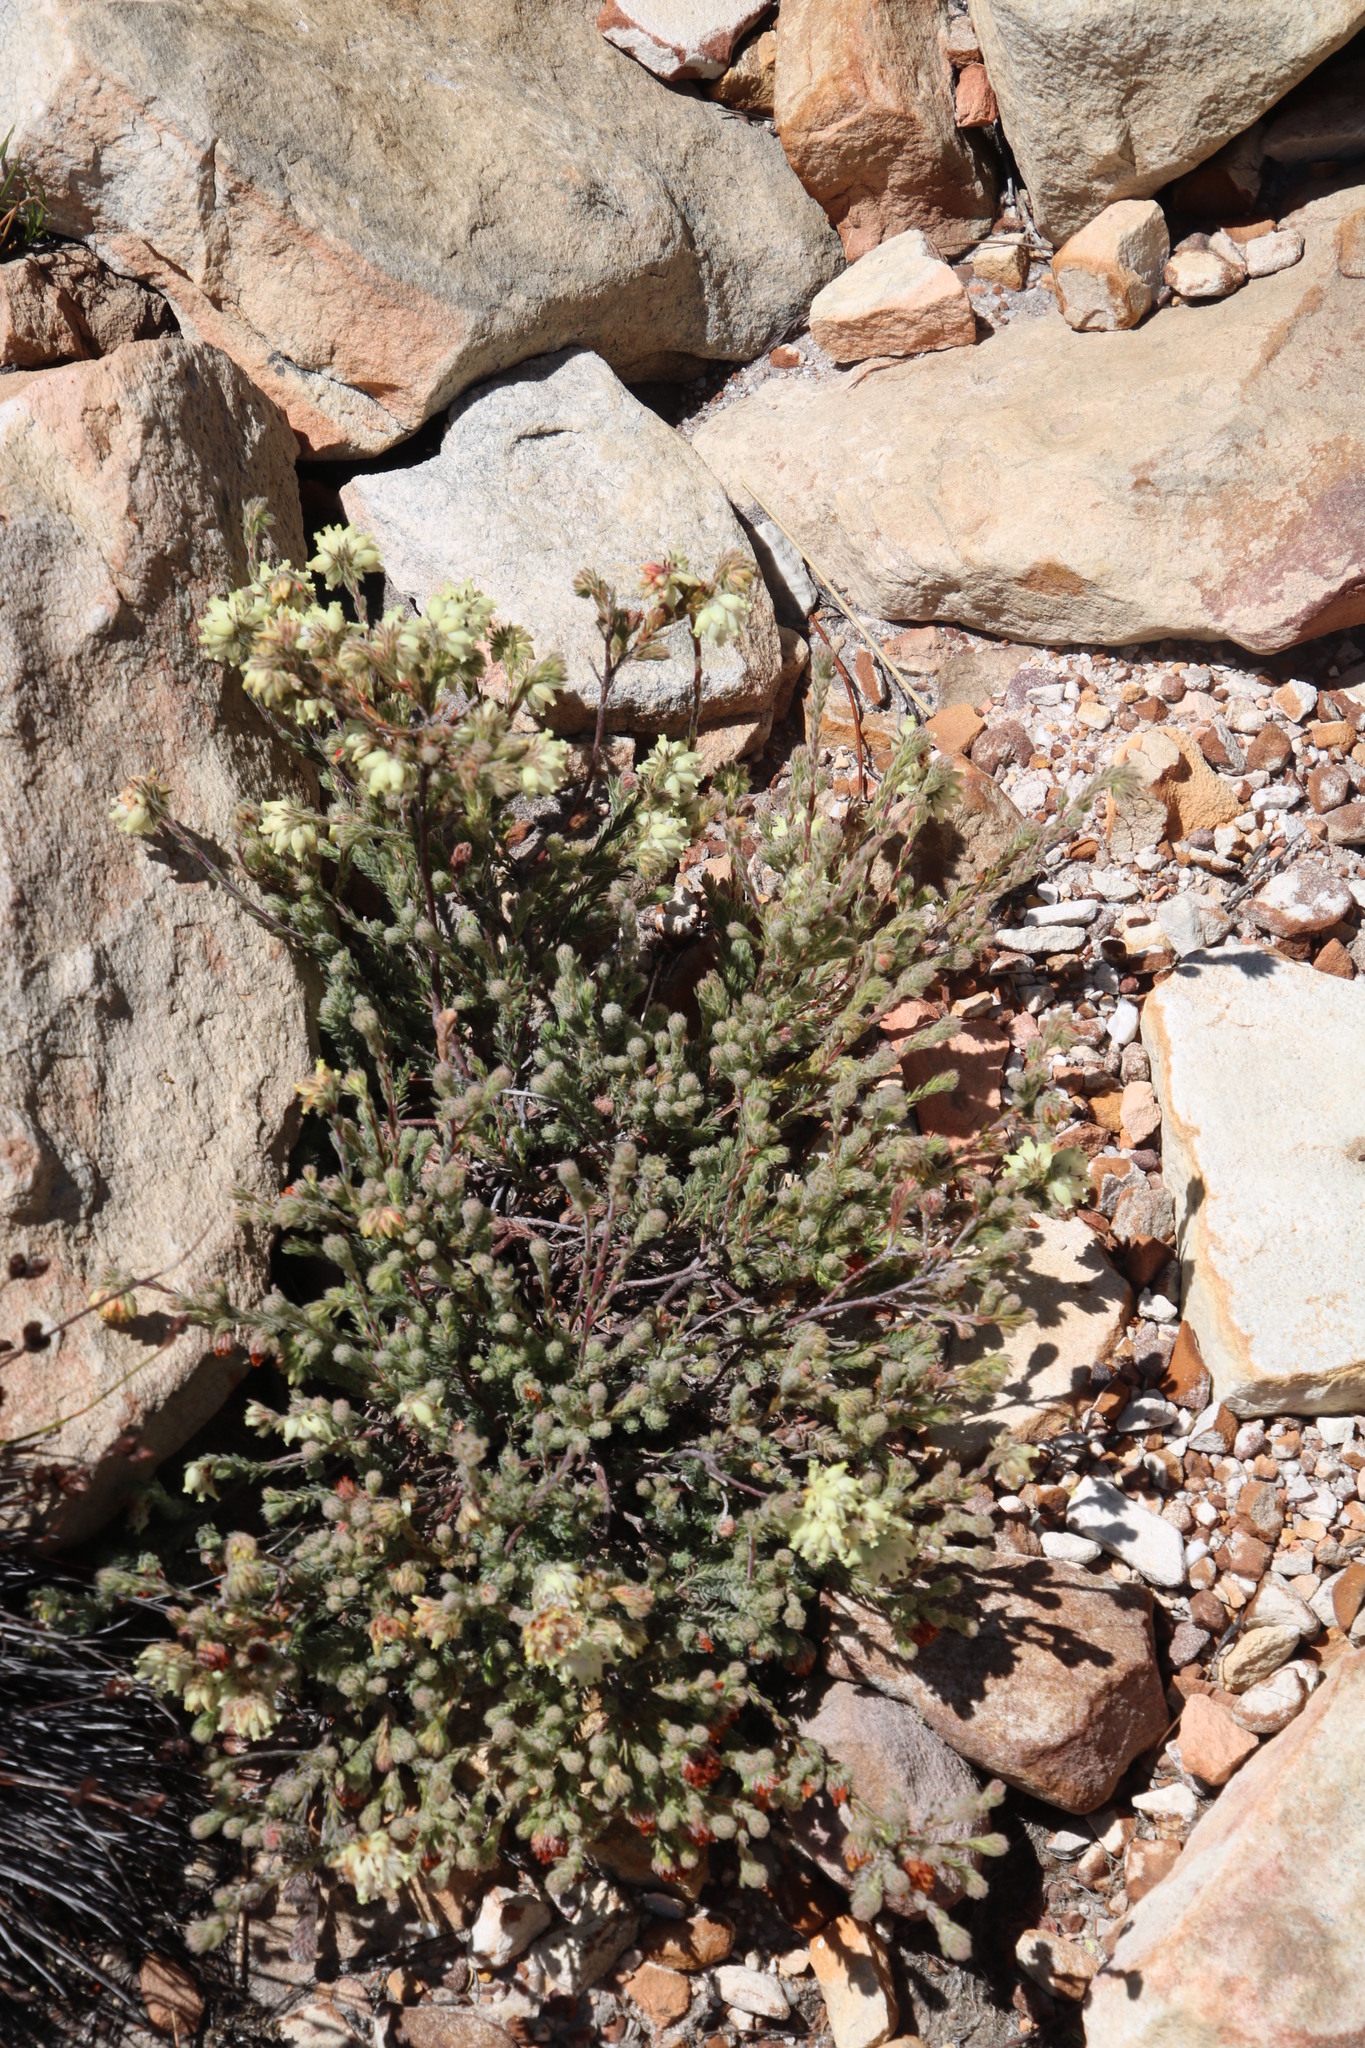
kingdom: Plantae
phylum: Tracheophyta
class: Magnoliopsida
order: Ericales
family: Ericaceae
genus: Erica
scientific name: Erica maderi
